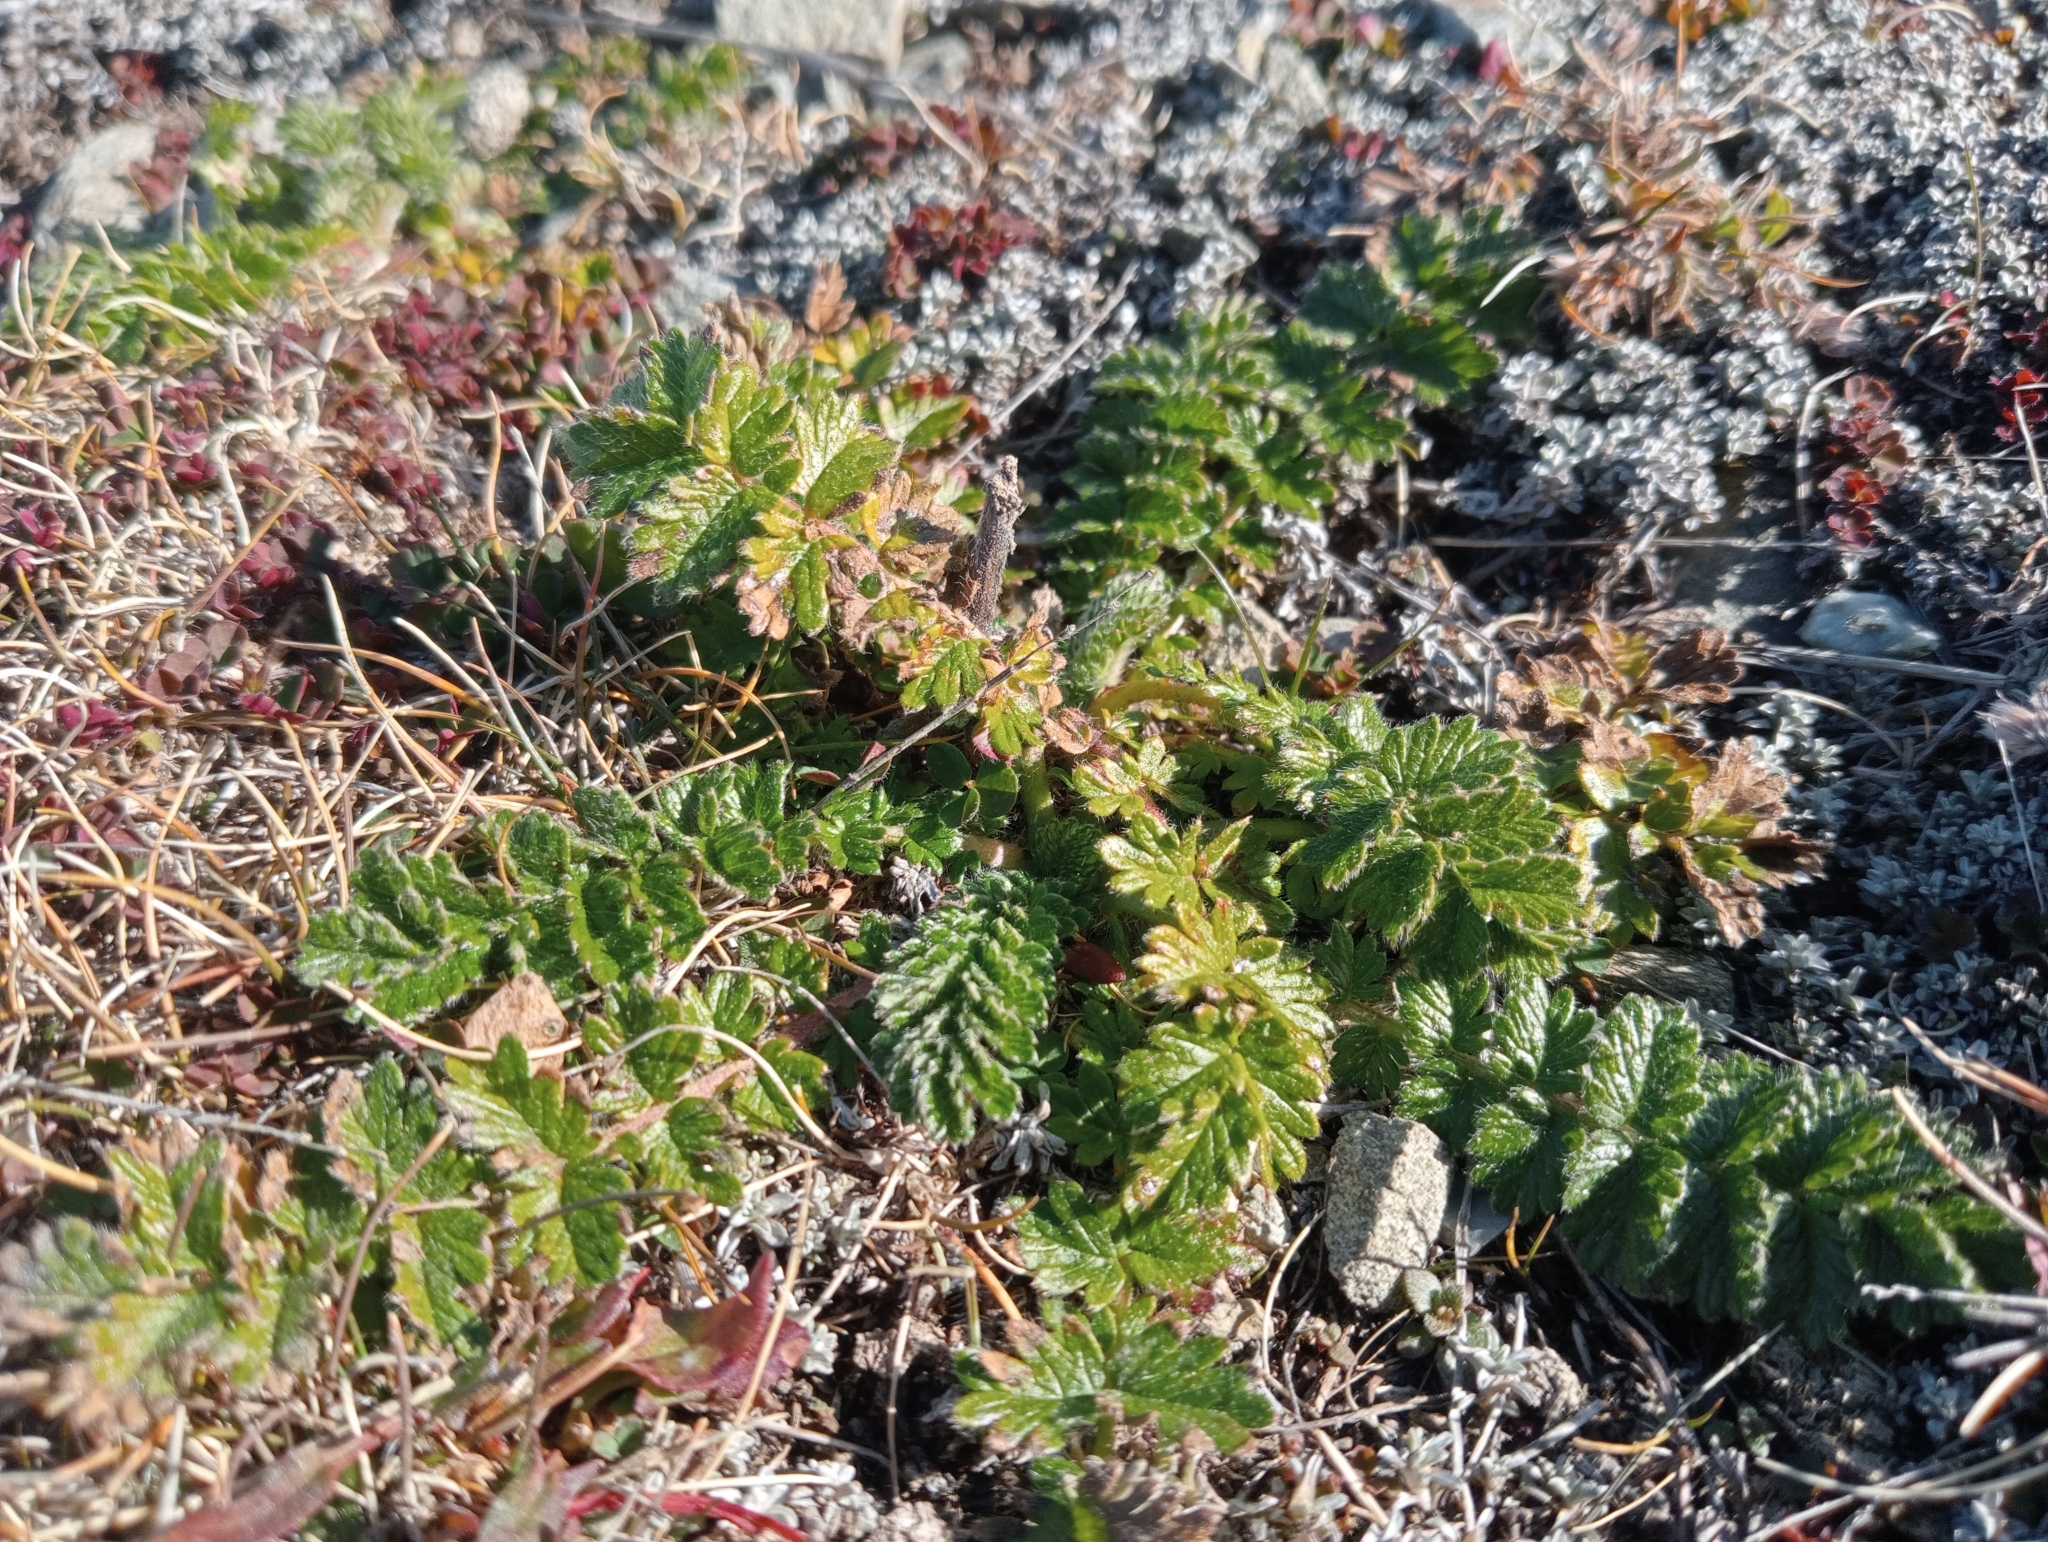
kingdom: Plantae
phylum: Tracheophyta
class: Magnoliopsida
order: Rosales
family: Rosaceae
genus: Acaena
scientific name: Acaena agnipila
